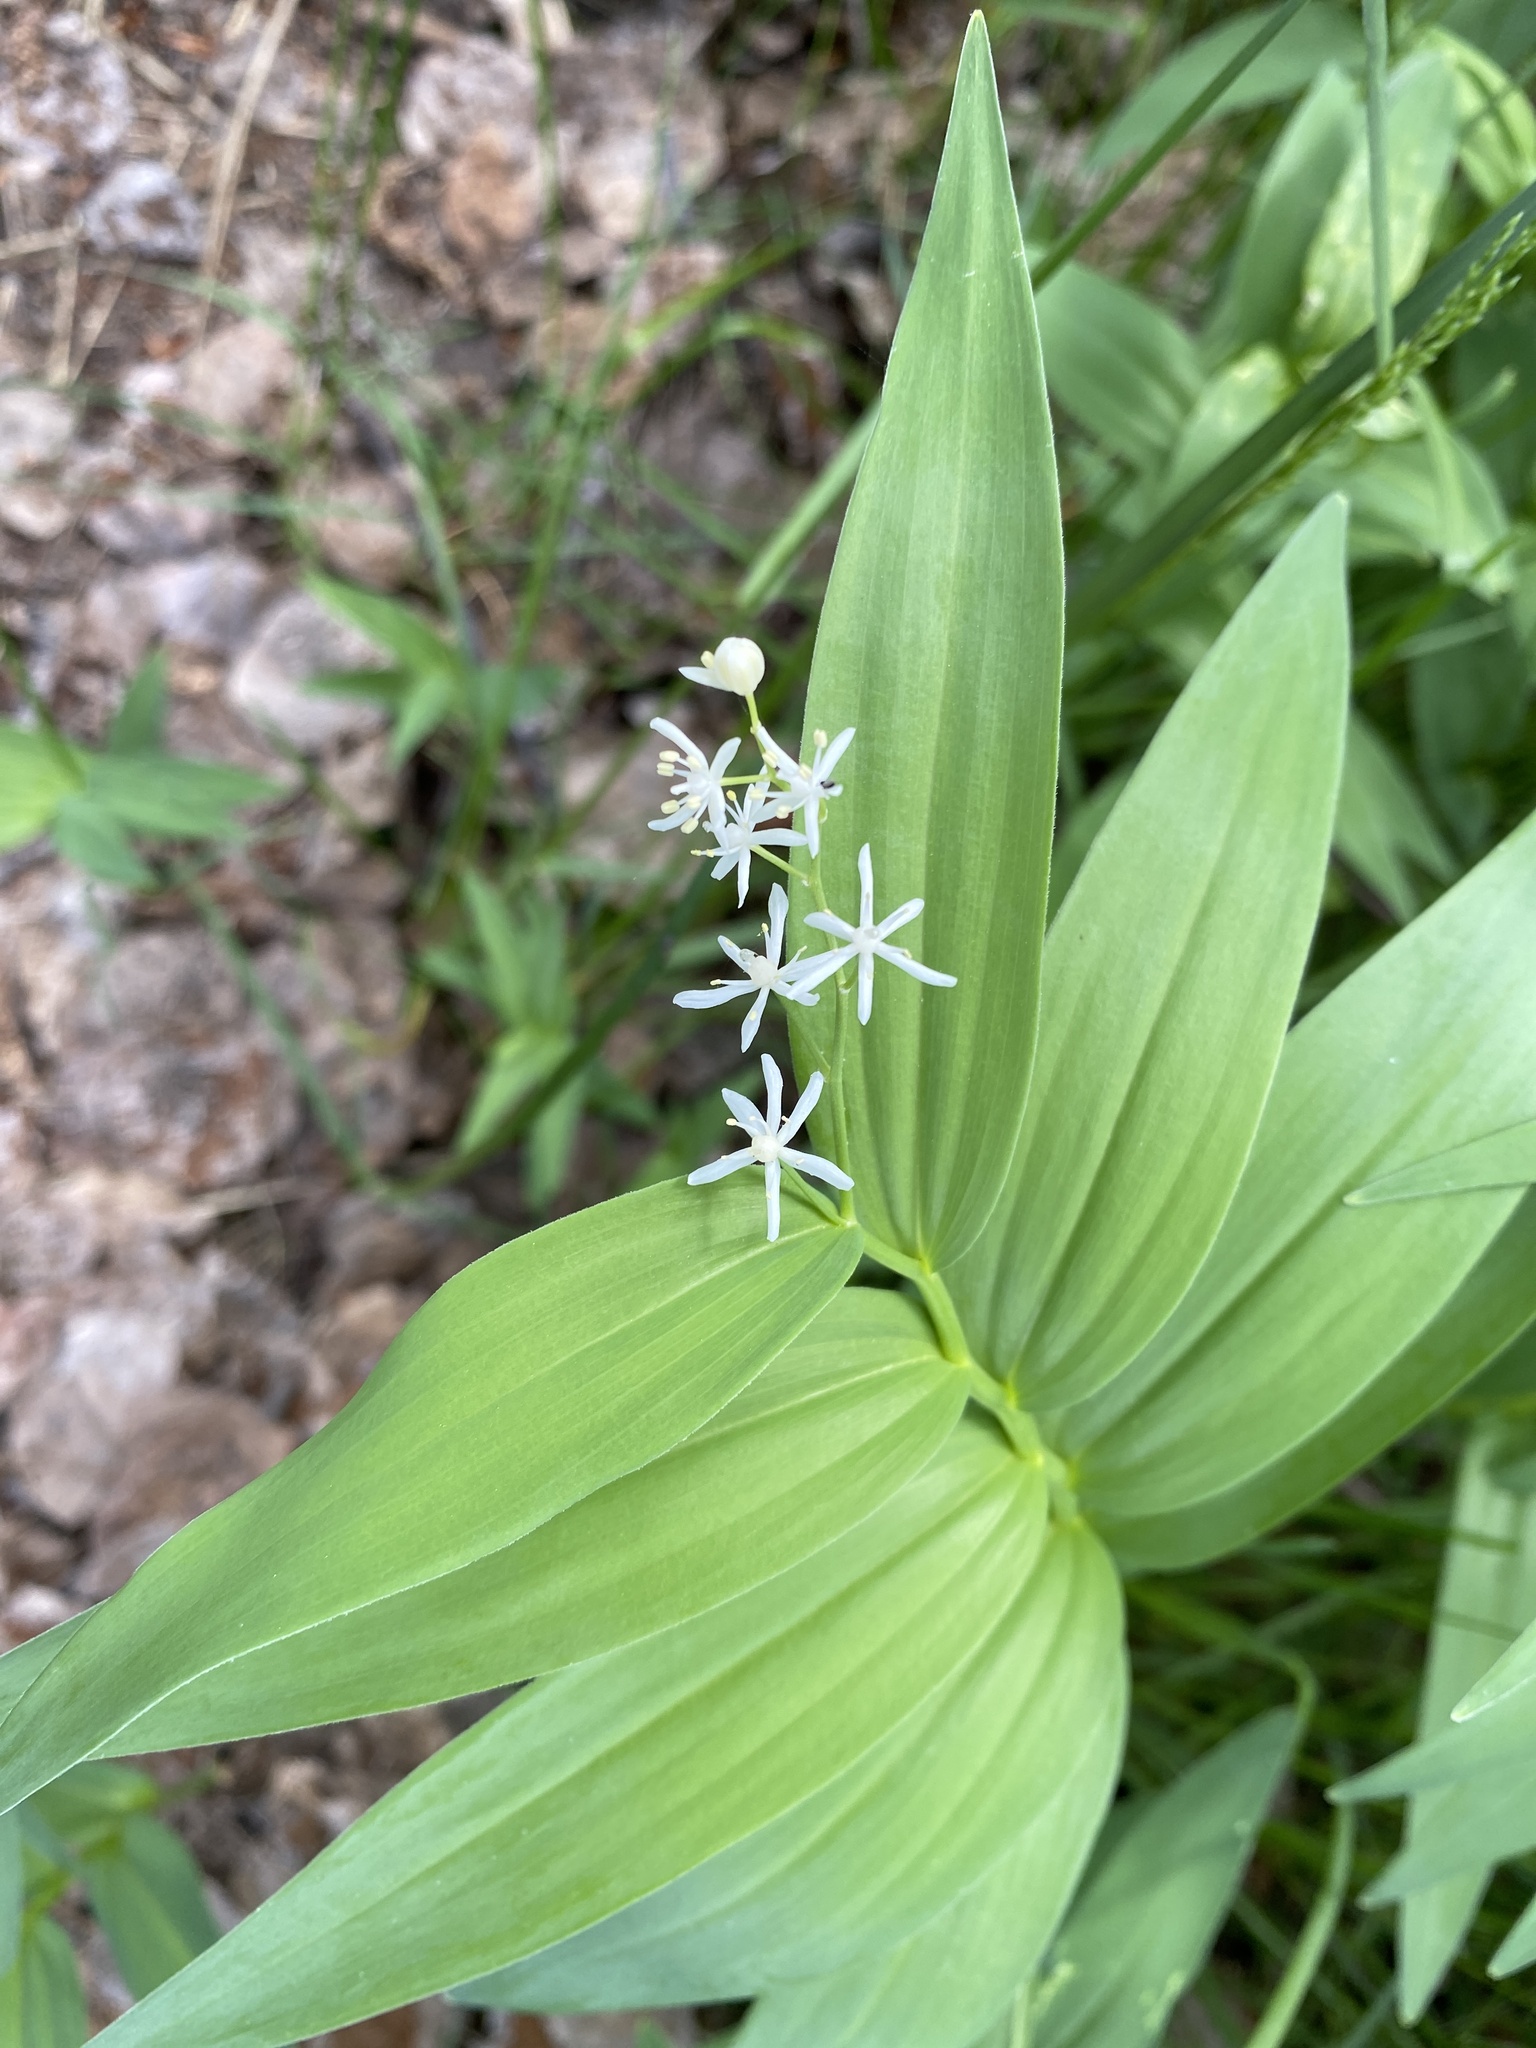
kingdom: Plantae
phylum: Tracheophyta
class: Liliopsida
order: Asparagales
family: Asparagaceae
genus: Maianthemum
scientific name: Maianthemum stellatum
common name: Little false solomon's seal
